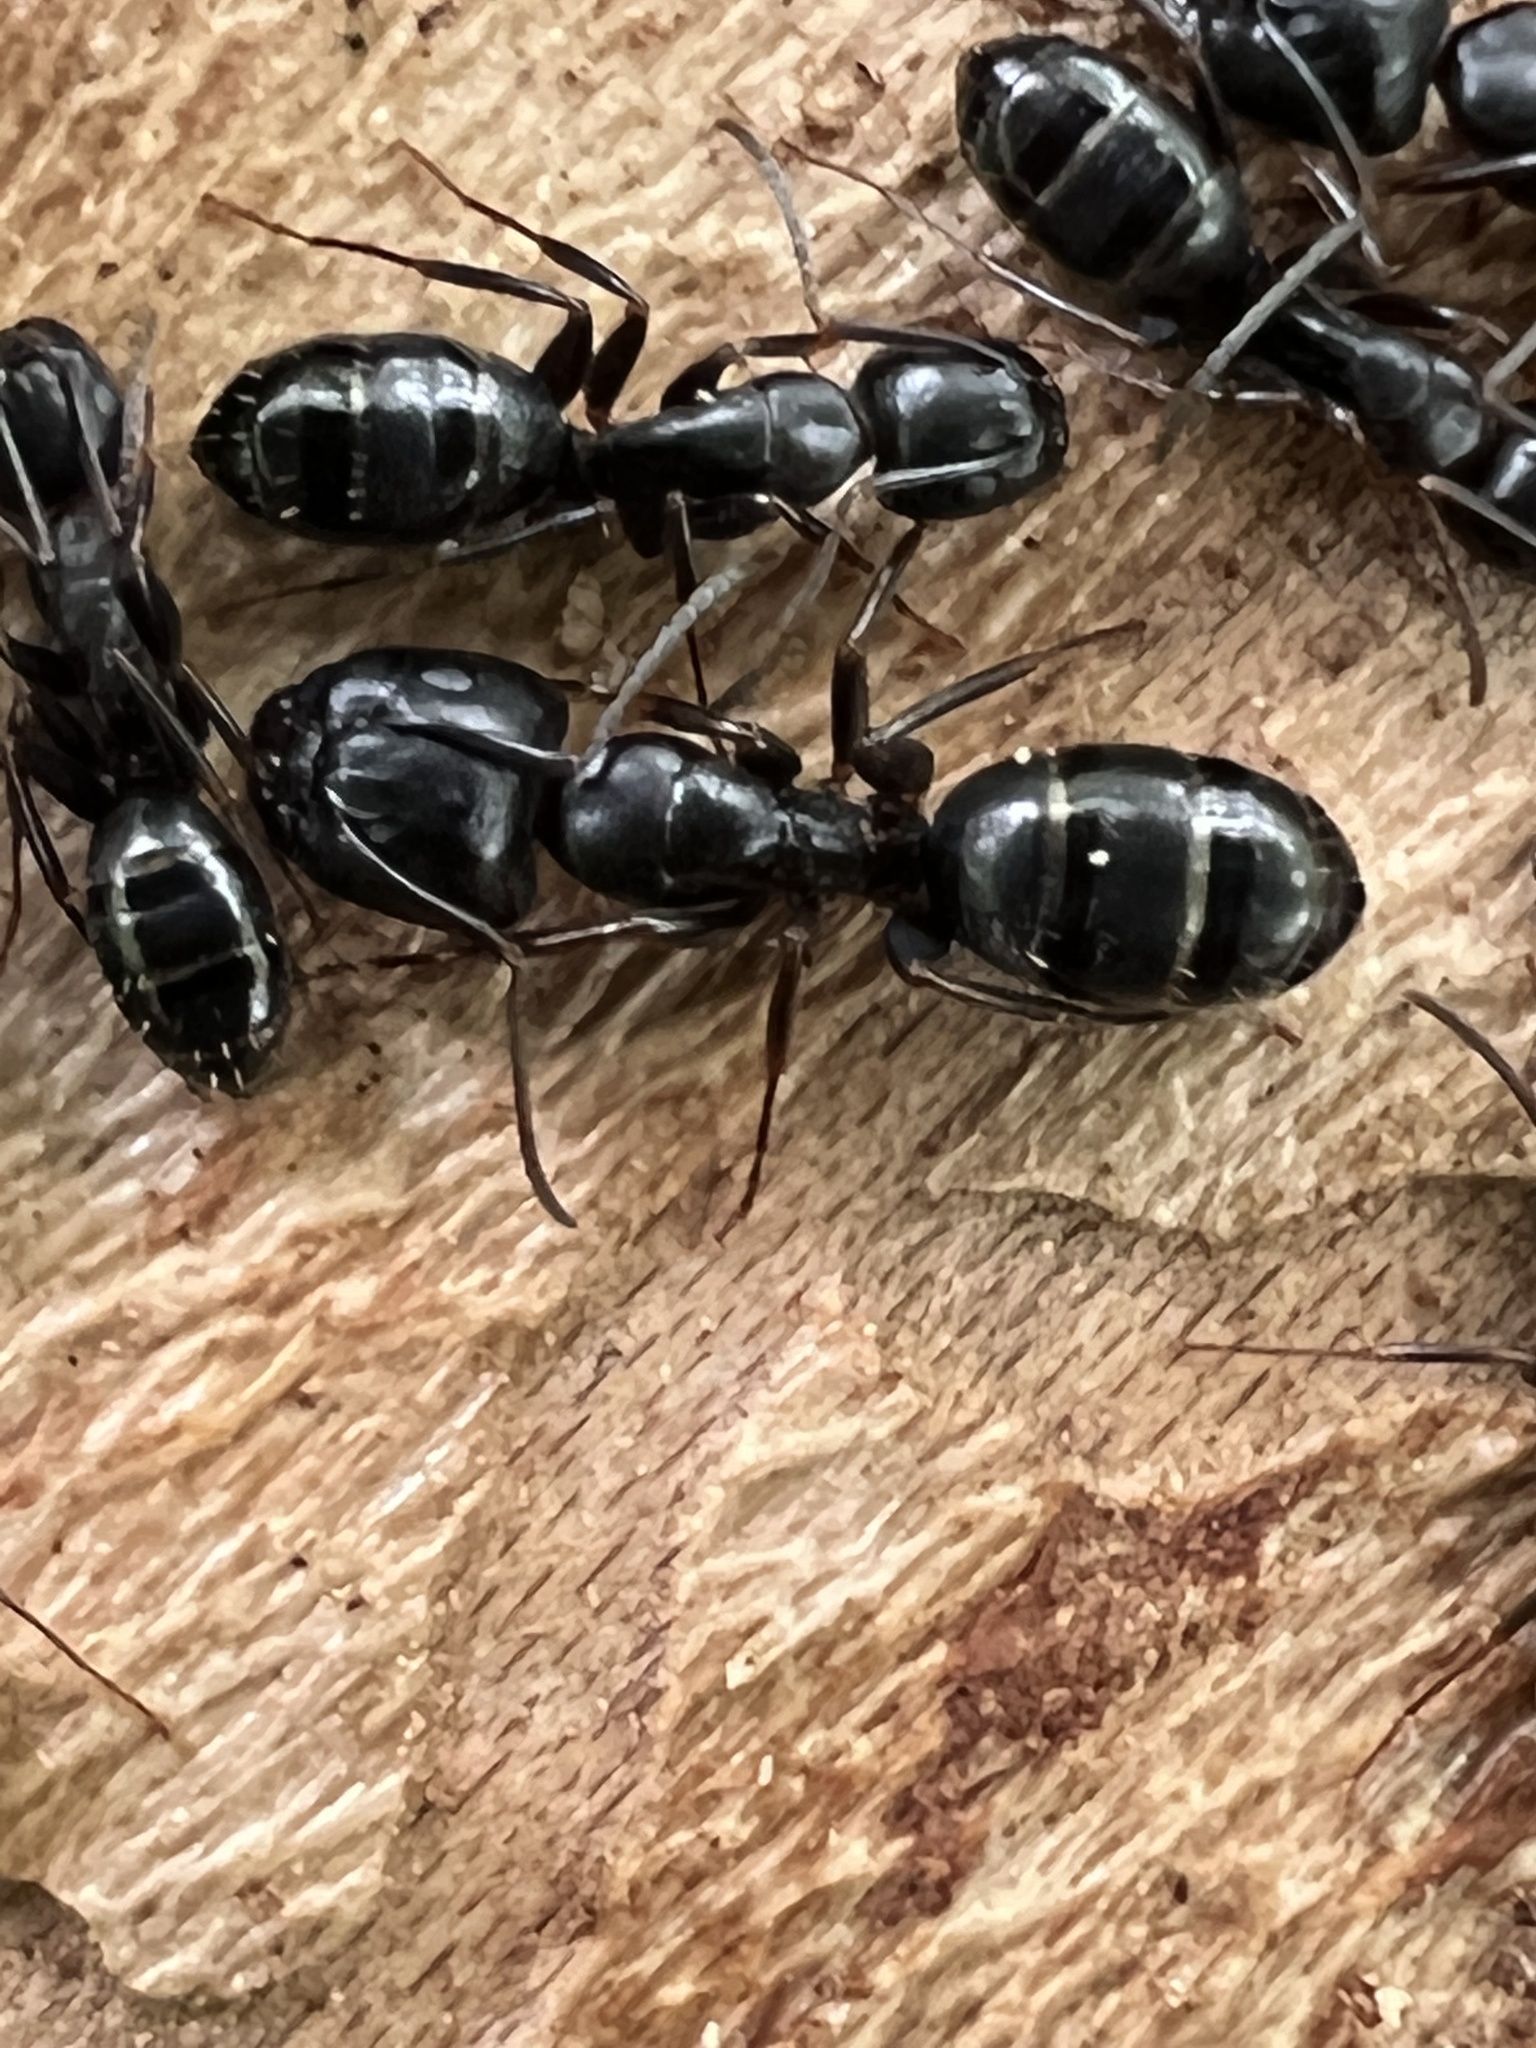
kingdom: Animalia
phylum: Arthropoda
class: Insecta
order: Hymenoptera
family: Formicidae
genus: Camponotus
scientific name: Camponotus nearcticus
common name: Smaller carpenter ant
